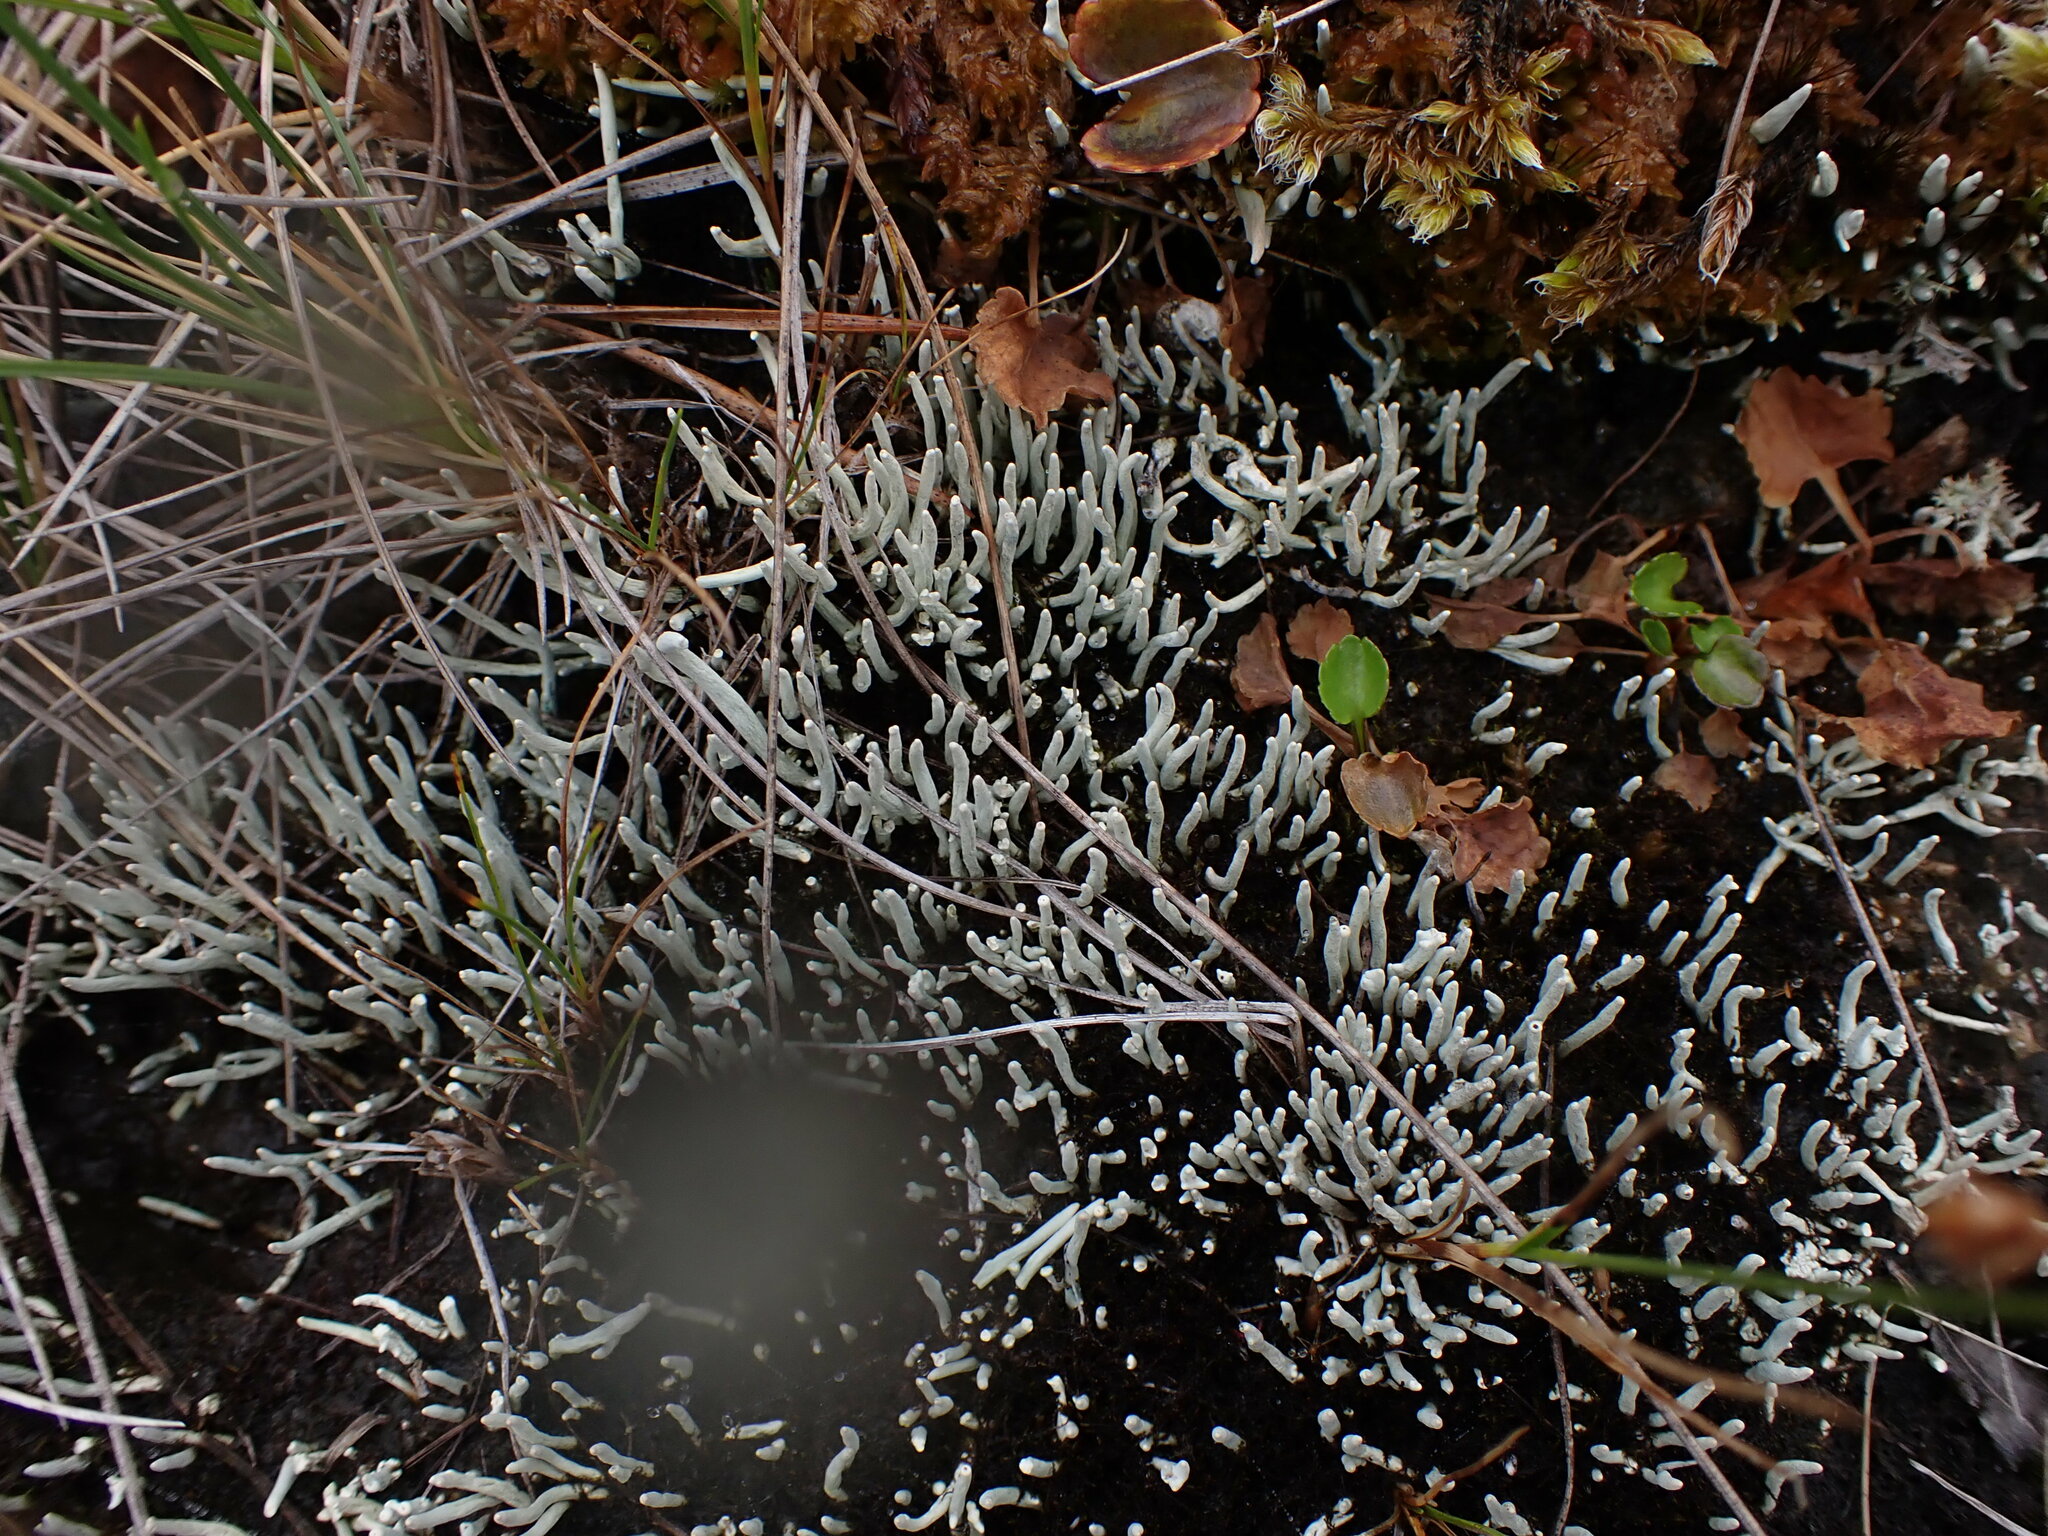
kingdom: Fungi
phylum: Ascomycota
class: Lecanoromycetes
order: Pertusariales
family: Icmadophilaceae
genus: Siphula
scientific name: Siphula ceratites
